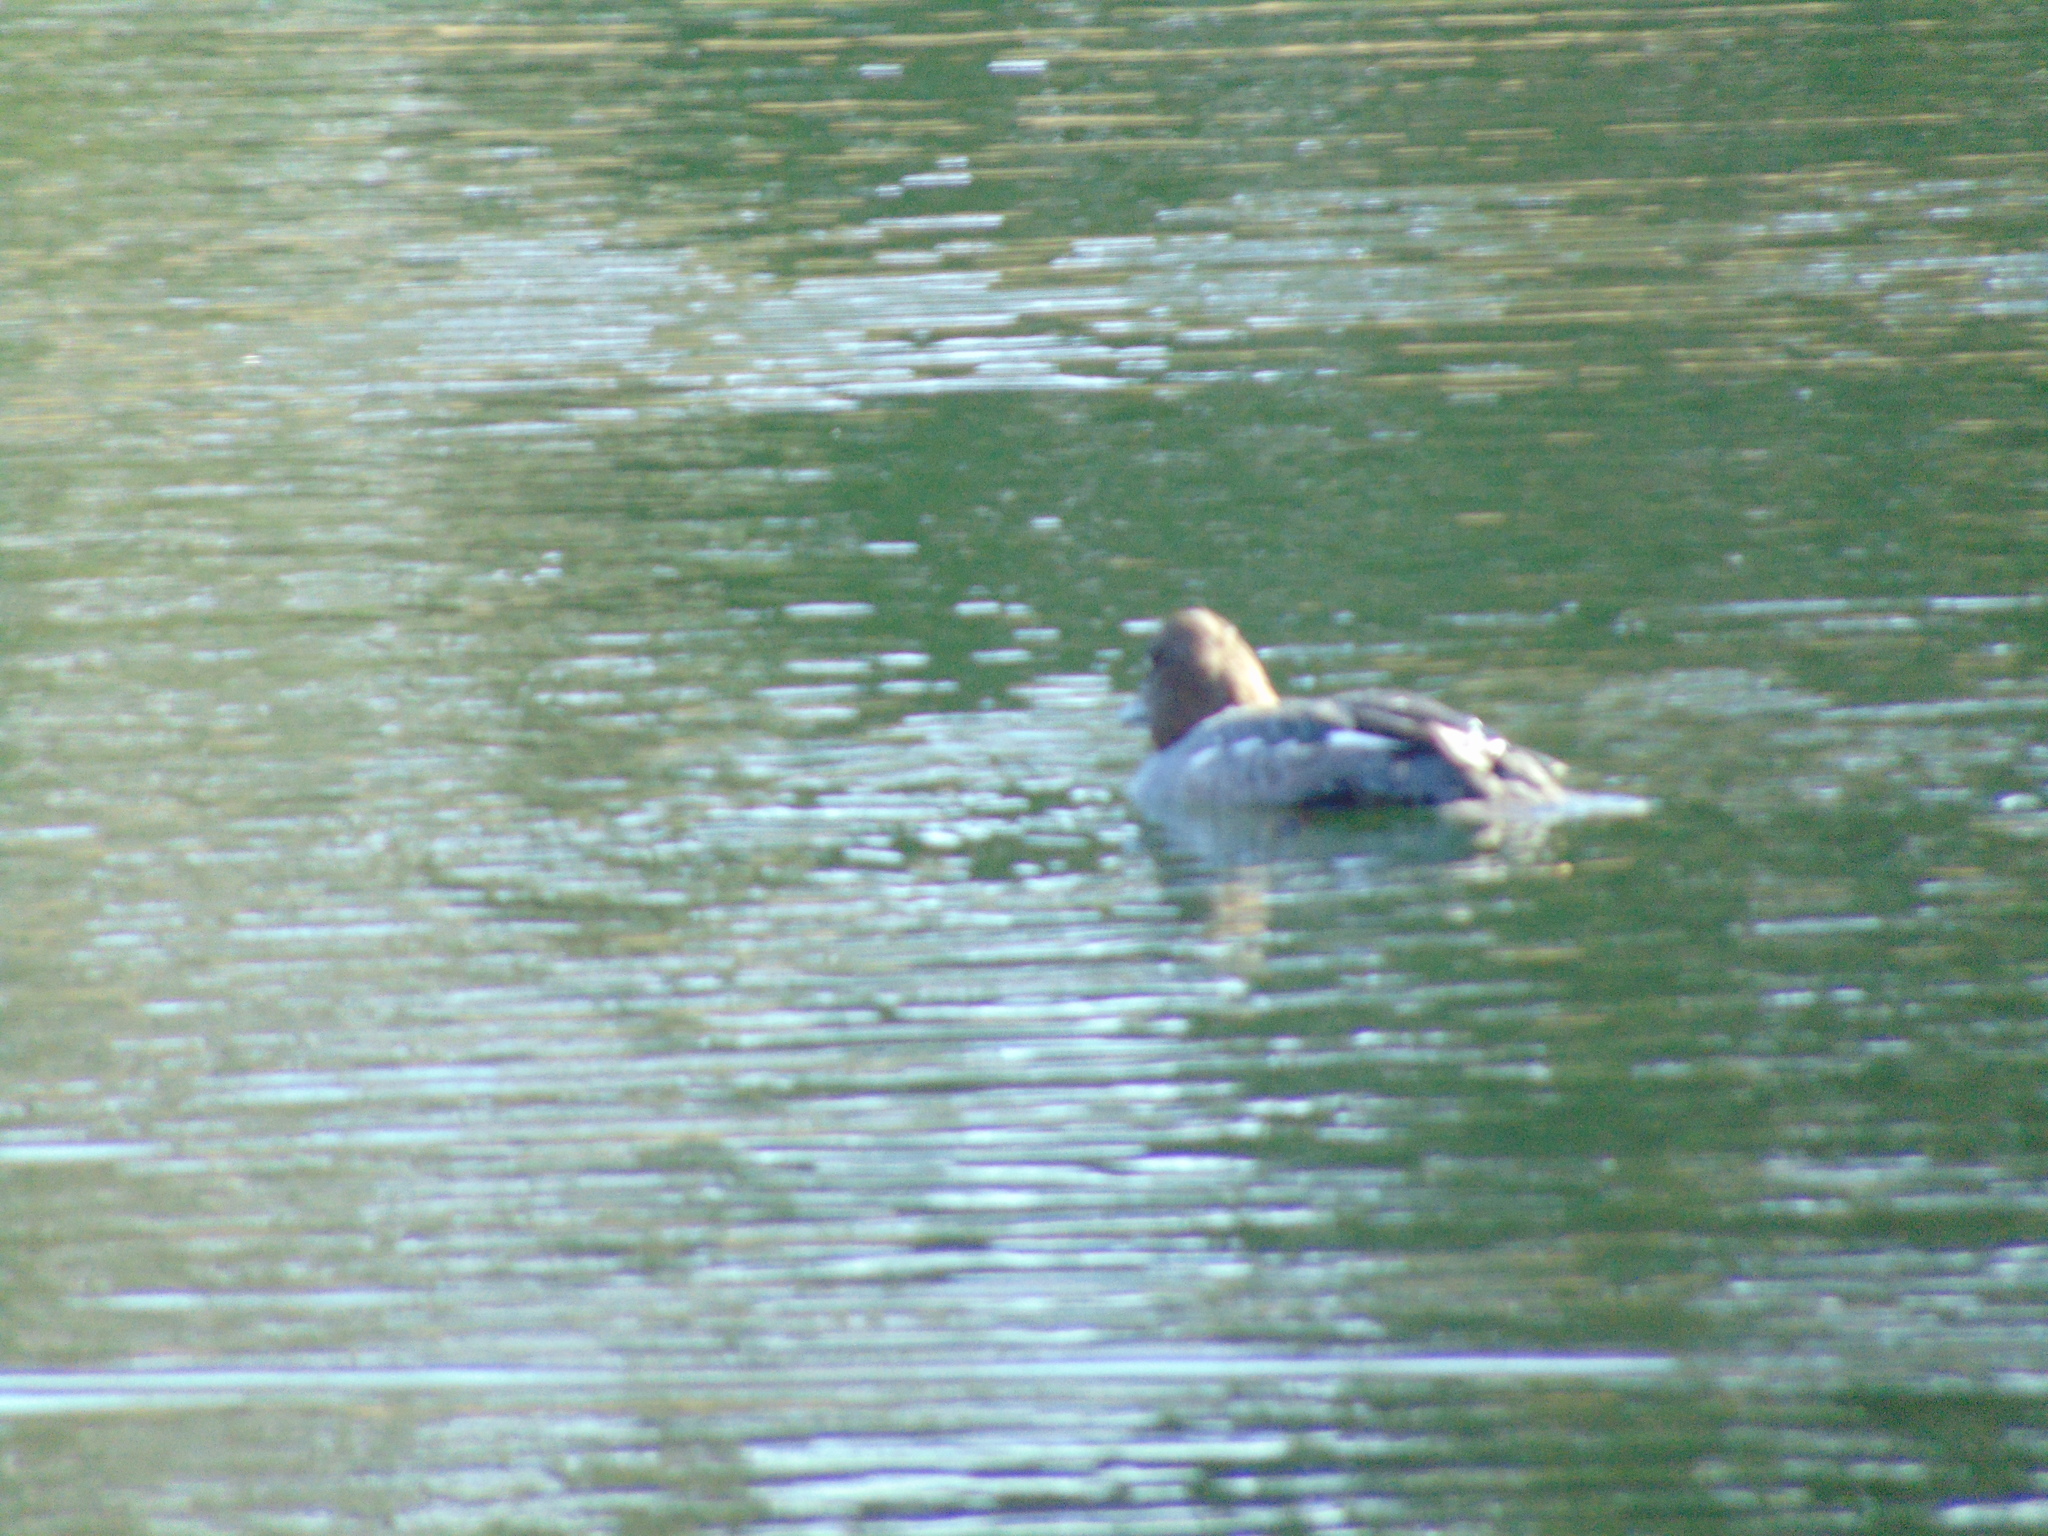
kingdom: Animalia
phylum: Chordata
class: Aves
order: Anseriformes
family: Anatidae
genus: Bucephala
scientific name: Bucephala clangula
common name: Common goldeneye
